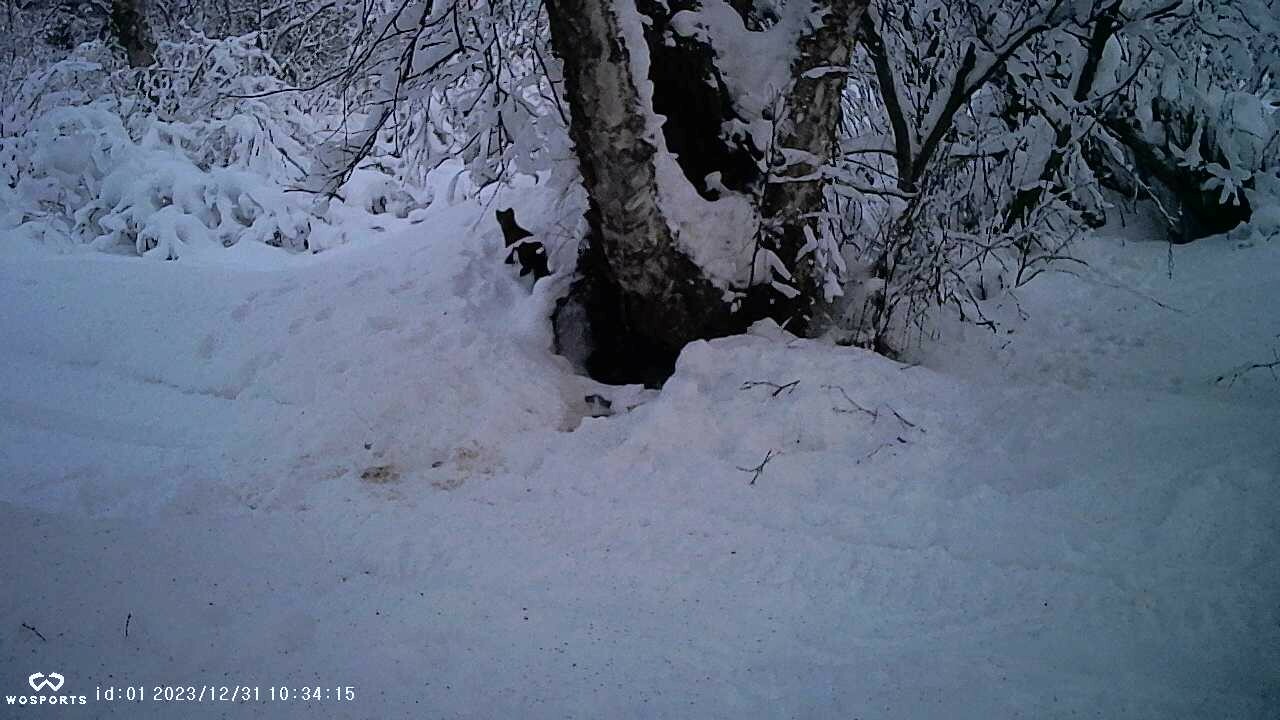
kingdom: Animalia
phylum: Chordata
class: Mammalia
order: Carnivora
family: Mustelidae
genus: Martes
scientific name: Martes americana
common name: American marten
